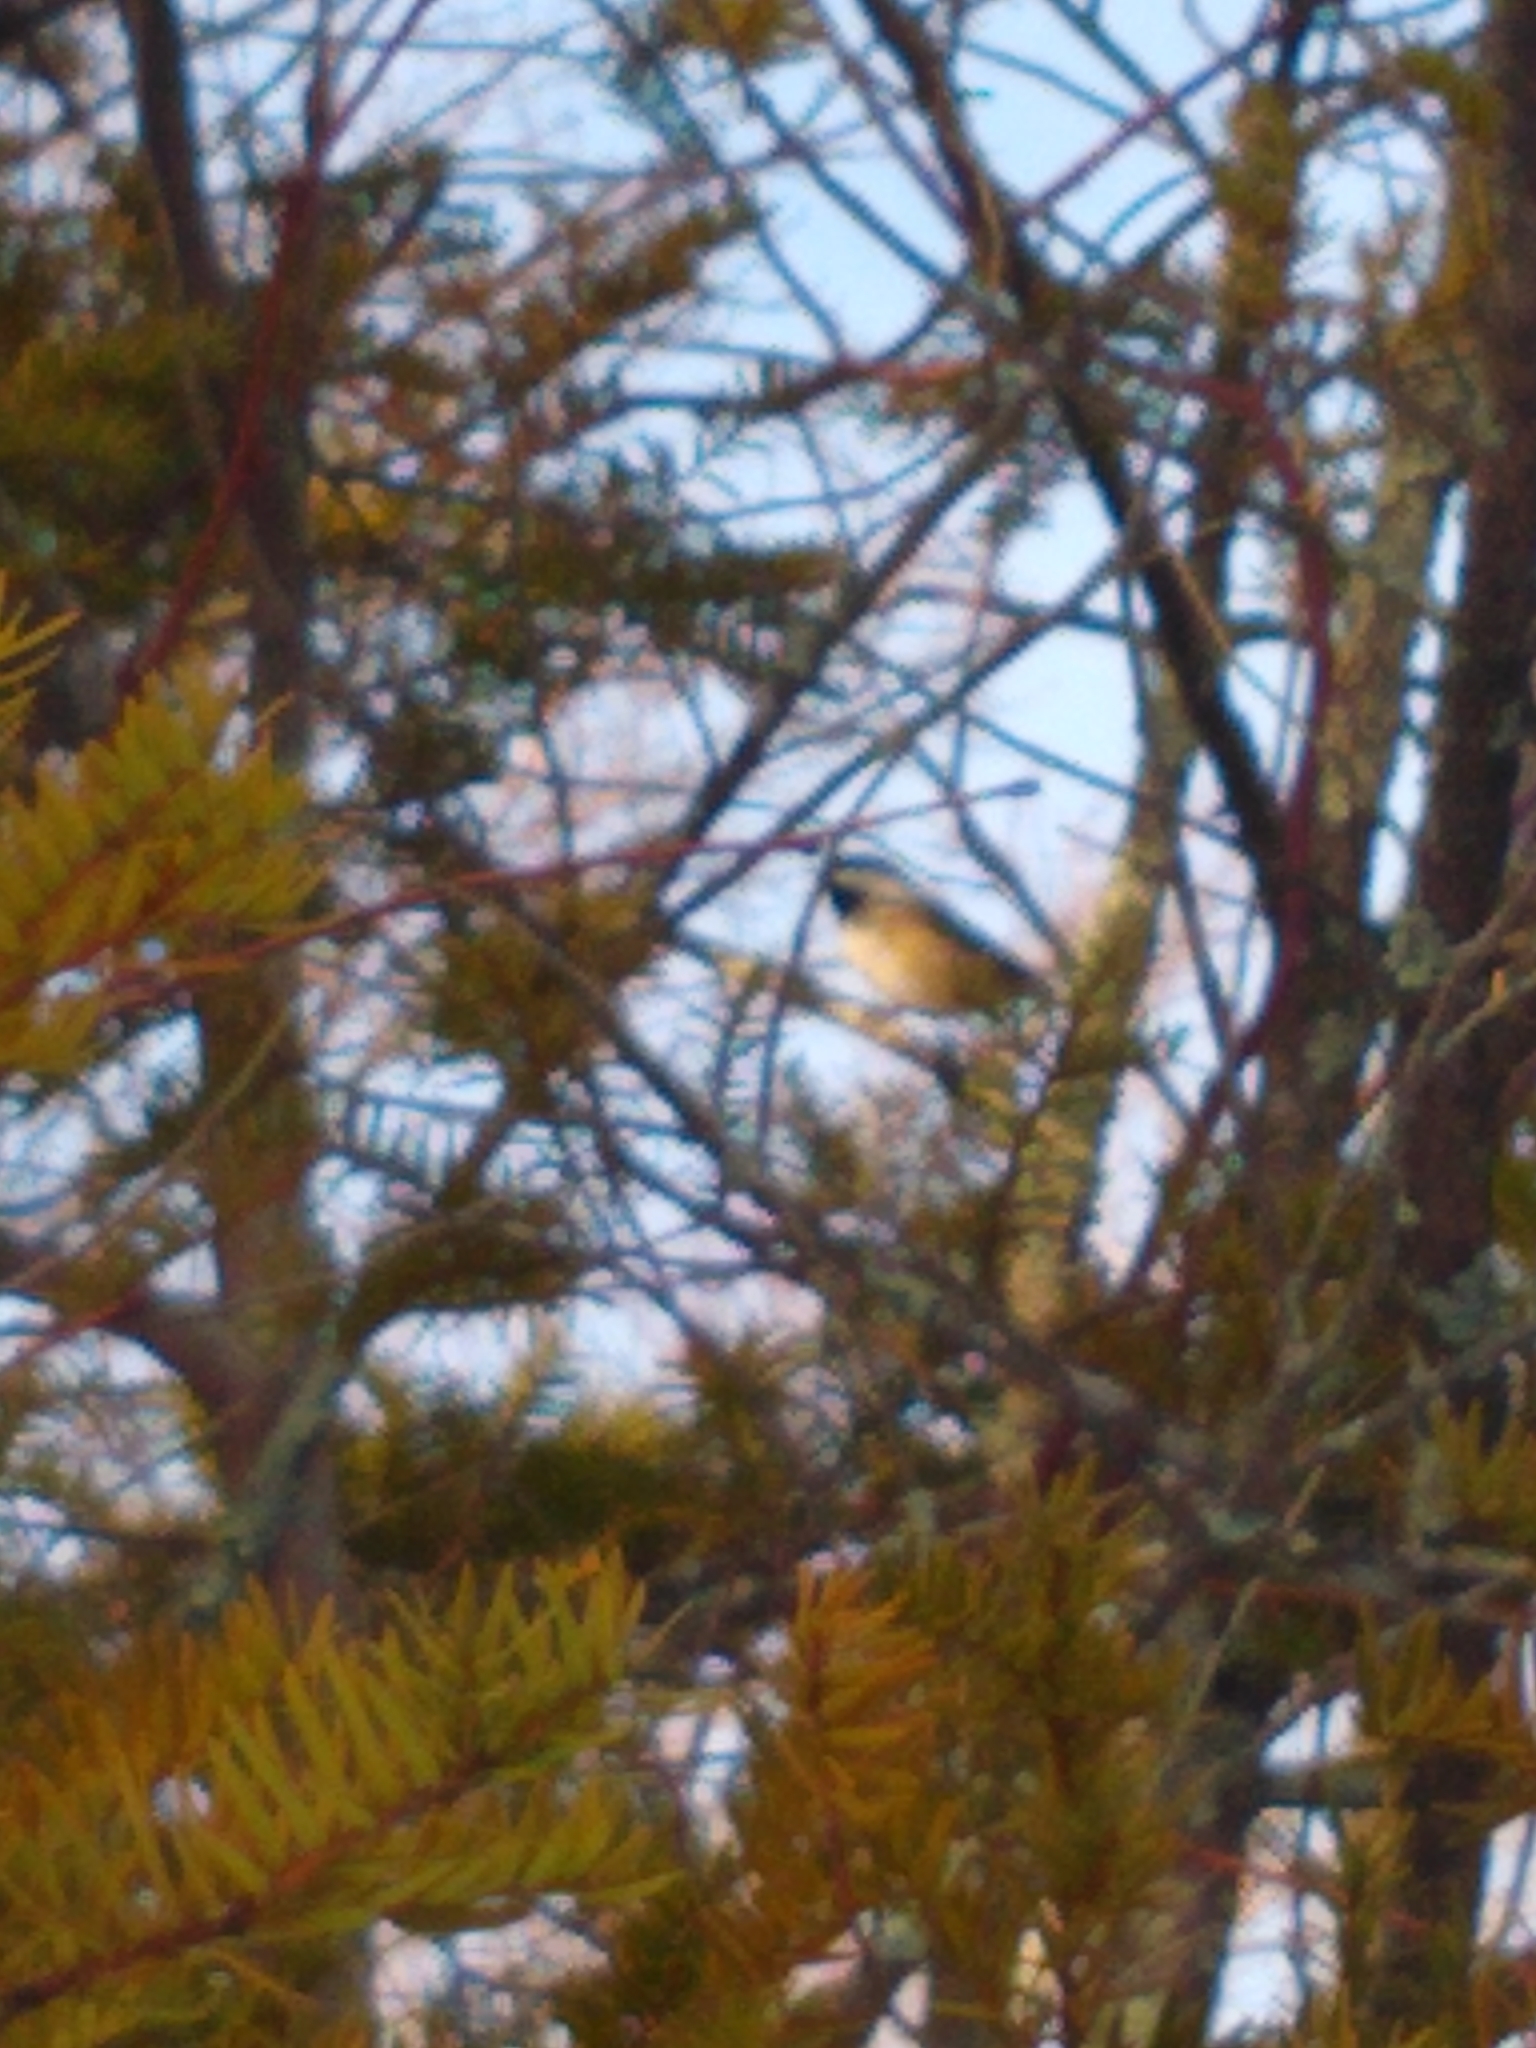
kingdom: Animalia
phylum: Chordata
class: Aves
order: Passeriformes
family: Paridae
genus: Poecile
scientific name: Poecile atricapillus
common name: Black-capped chickadee
